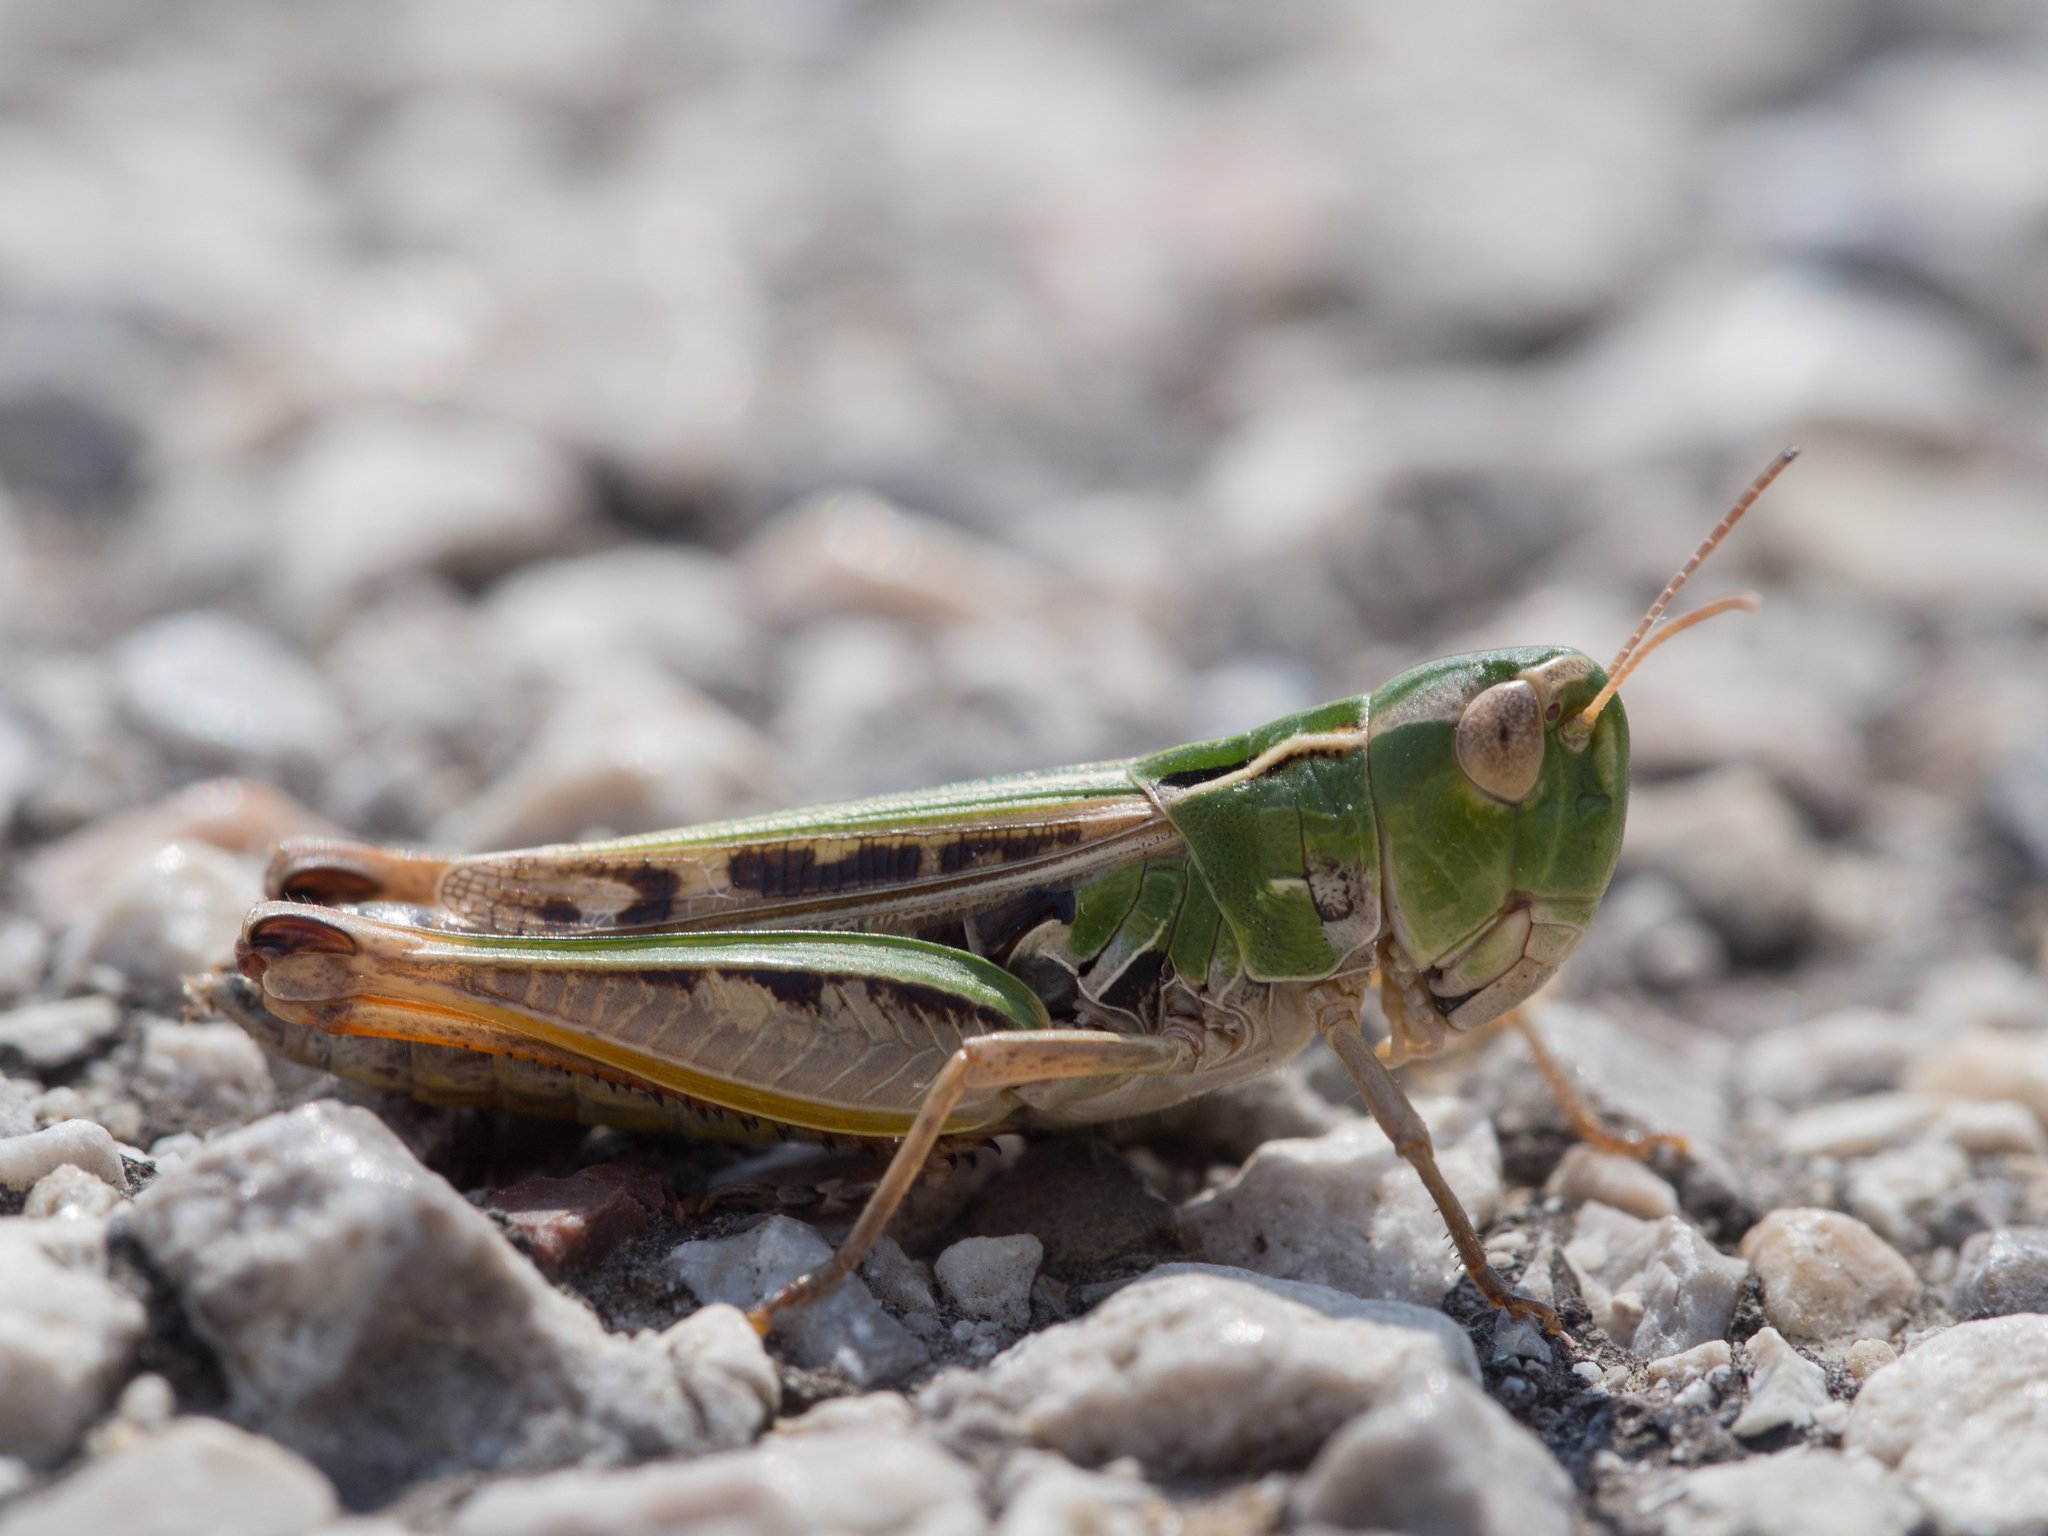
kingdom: Animalia
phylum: Arthropoda
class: Insecta
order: Orthoptera
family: Acrididae
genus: Stenobothrus
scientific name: Stenobothrus nigromaculatus
